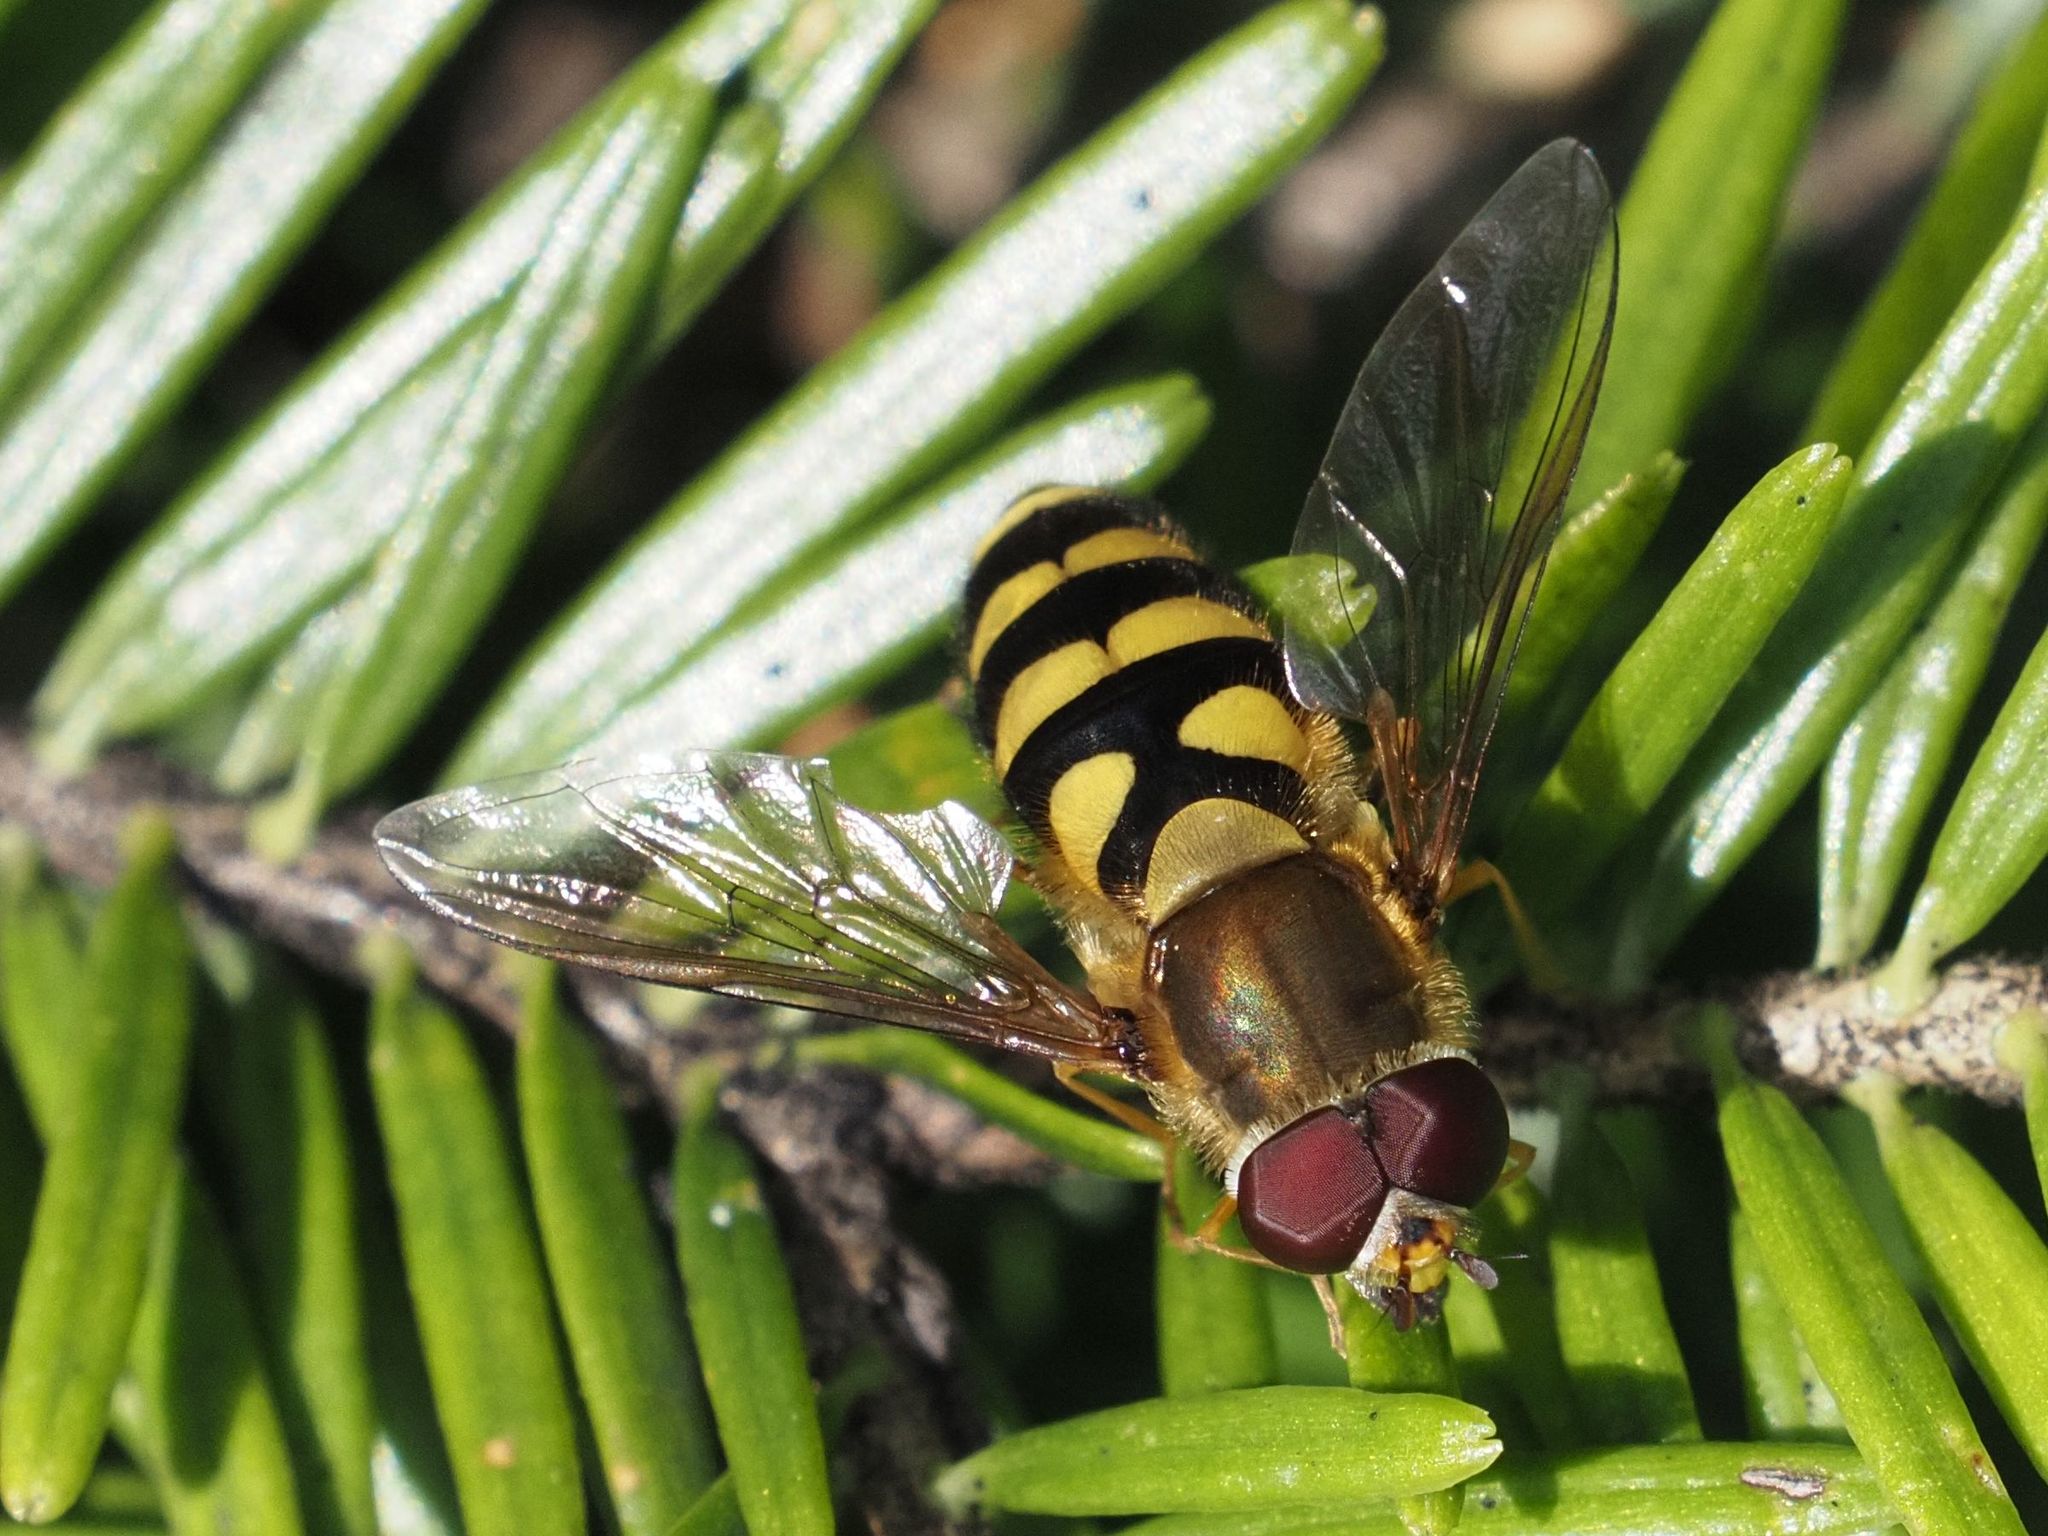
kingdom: Animalia
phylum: Arthropoda
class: Insecta
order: Diptera
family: Syrphidae
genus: Syrphus
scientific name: Syrphus
